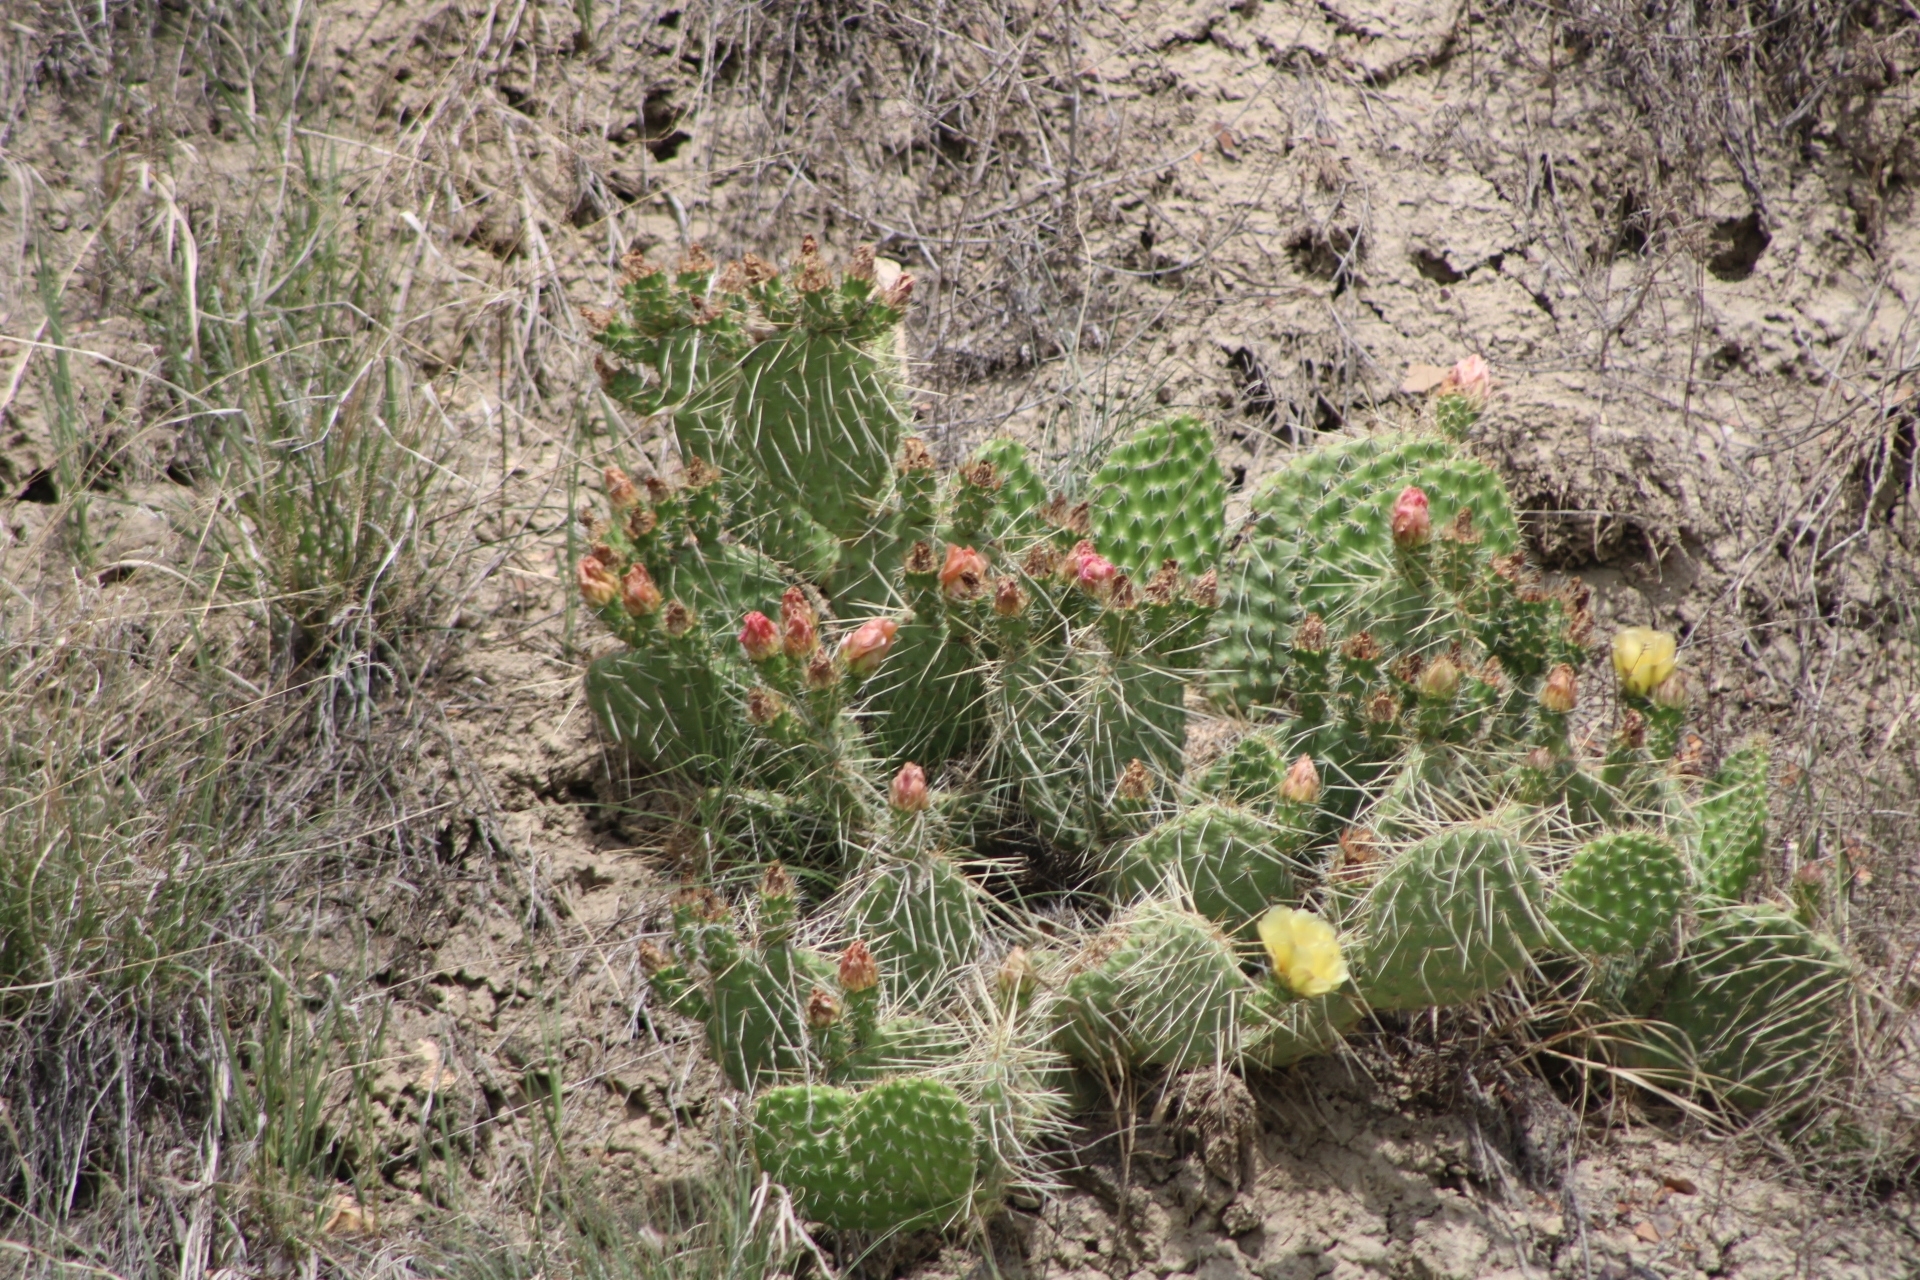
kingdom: Plantae
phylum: Tracheophyta
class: Magnoliopsida
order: Caryophyllales
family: Cactaceae
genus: Opuntia
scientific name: Opuntia polyacantha
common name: Plains prickly-pear
